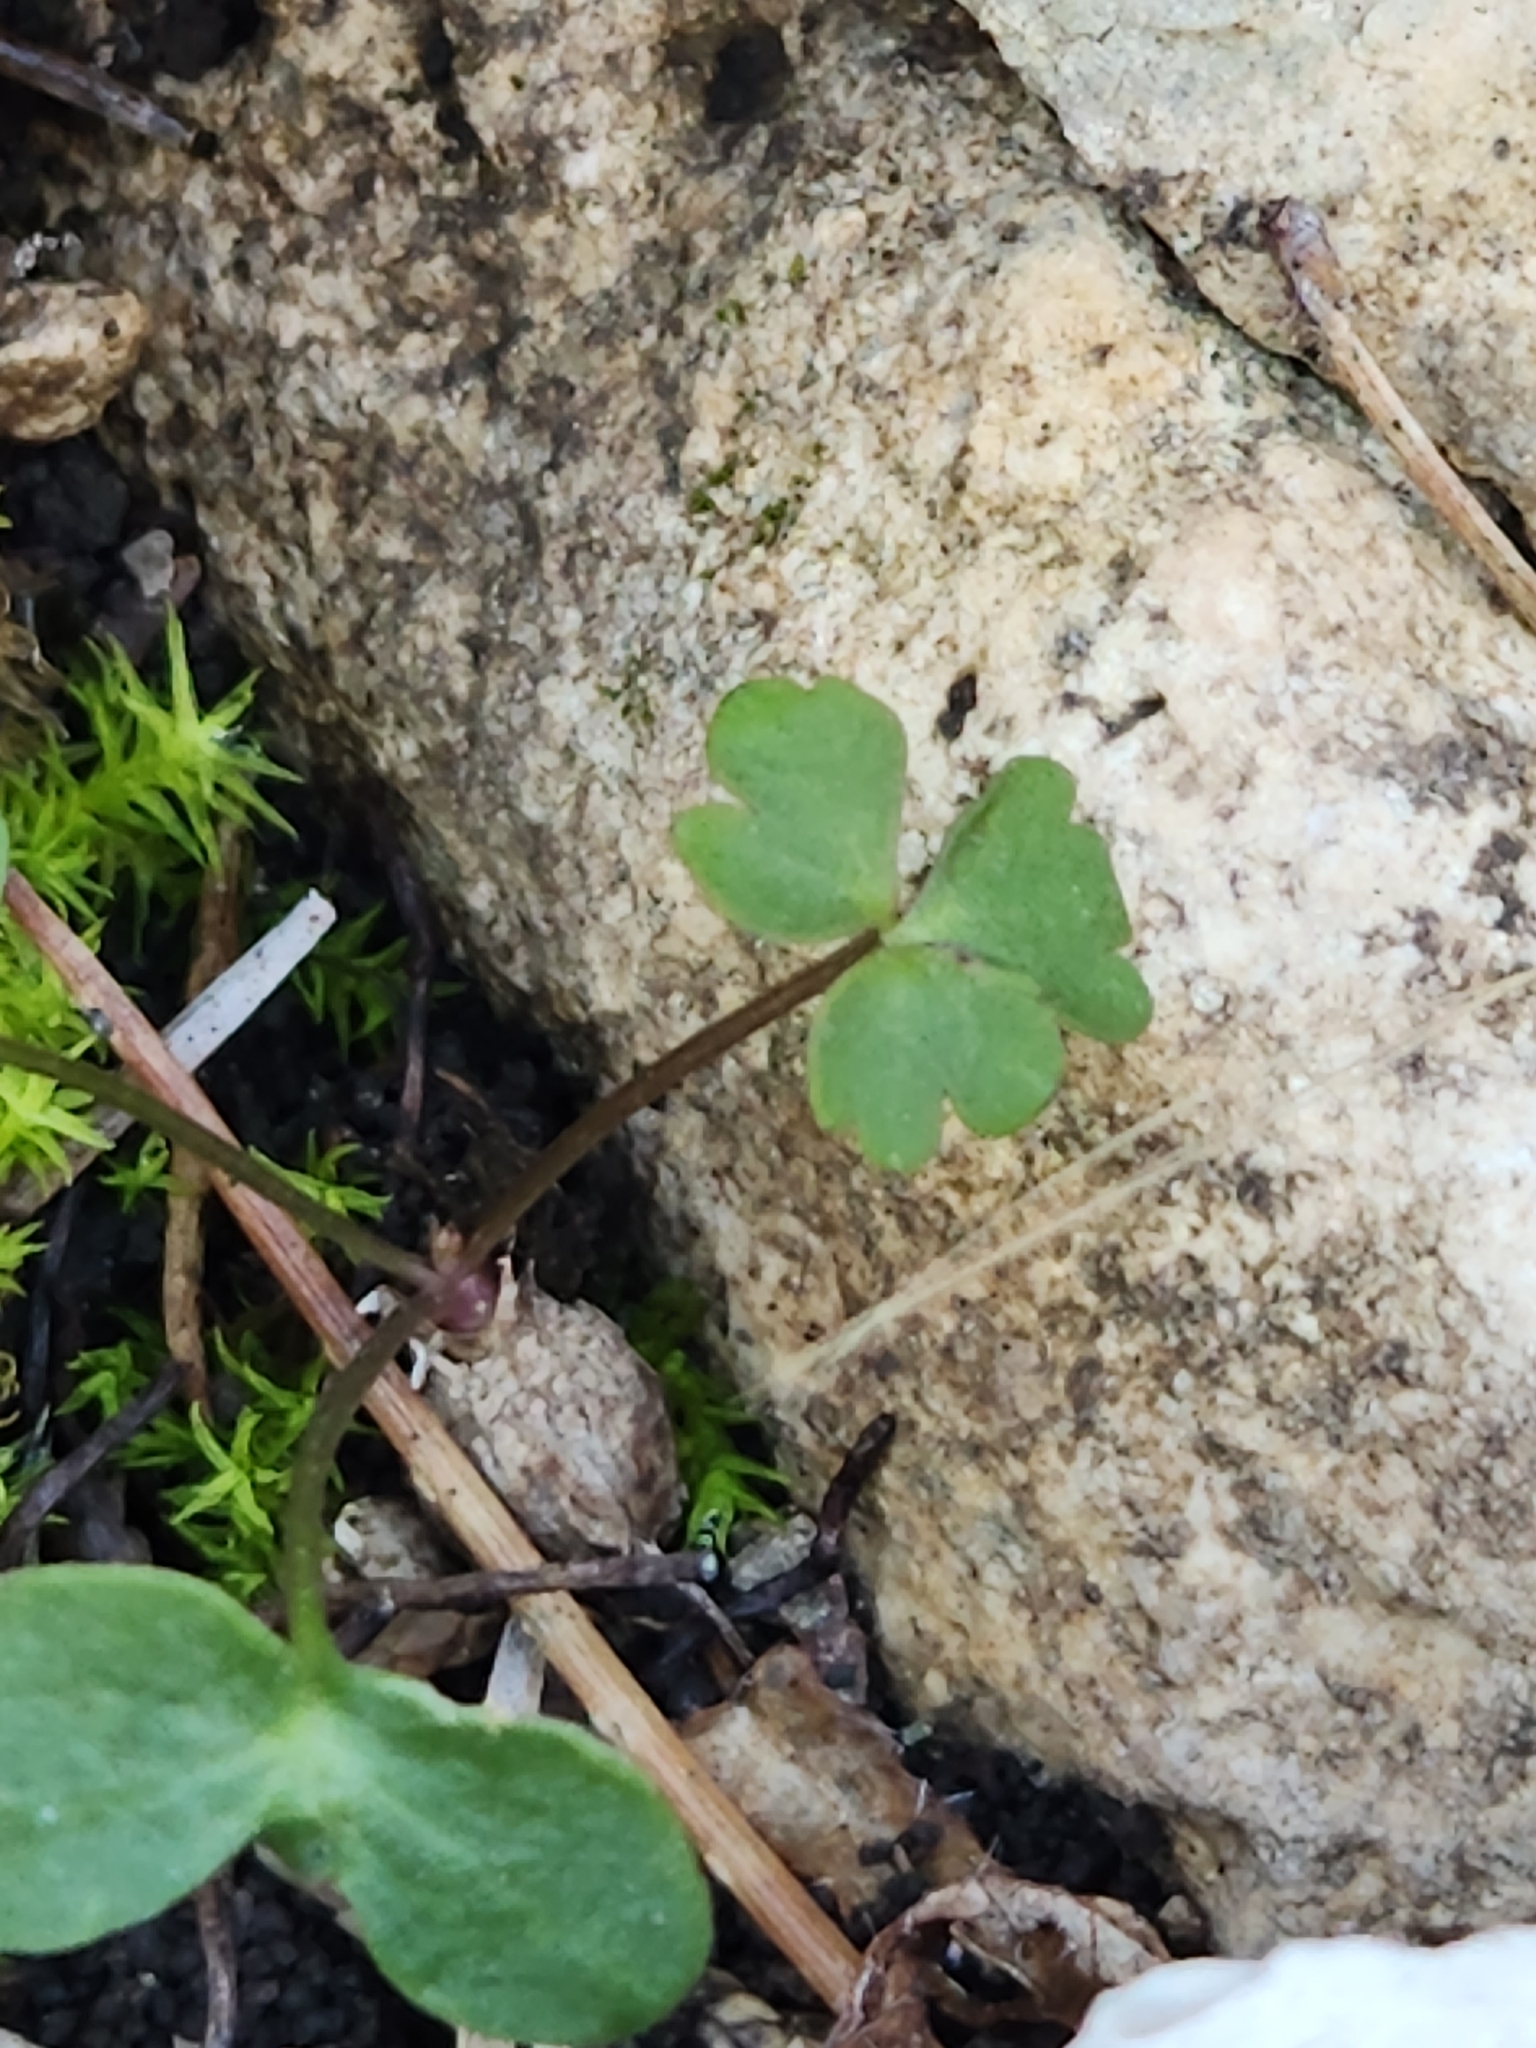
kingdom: Plantae
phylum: Tracheophyta
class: Magnoliopsida
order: Ranunculales
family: Ranunculaceae
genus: Anemone
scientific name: Anemone edwardsiana
